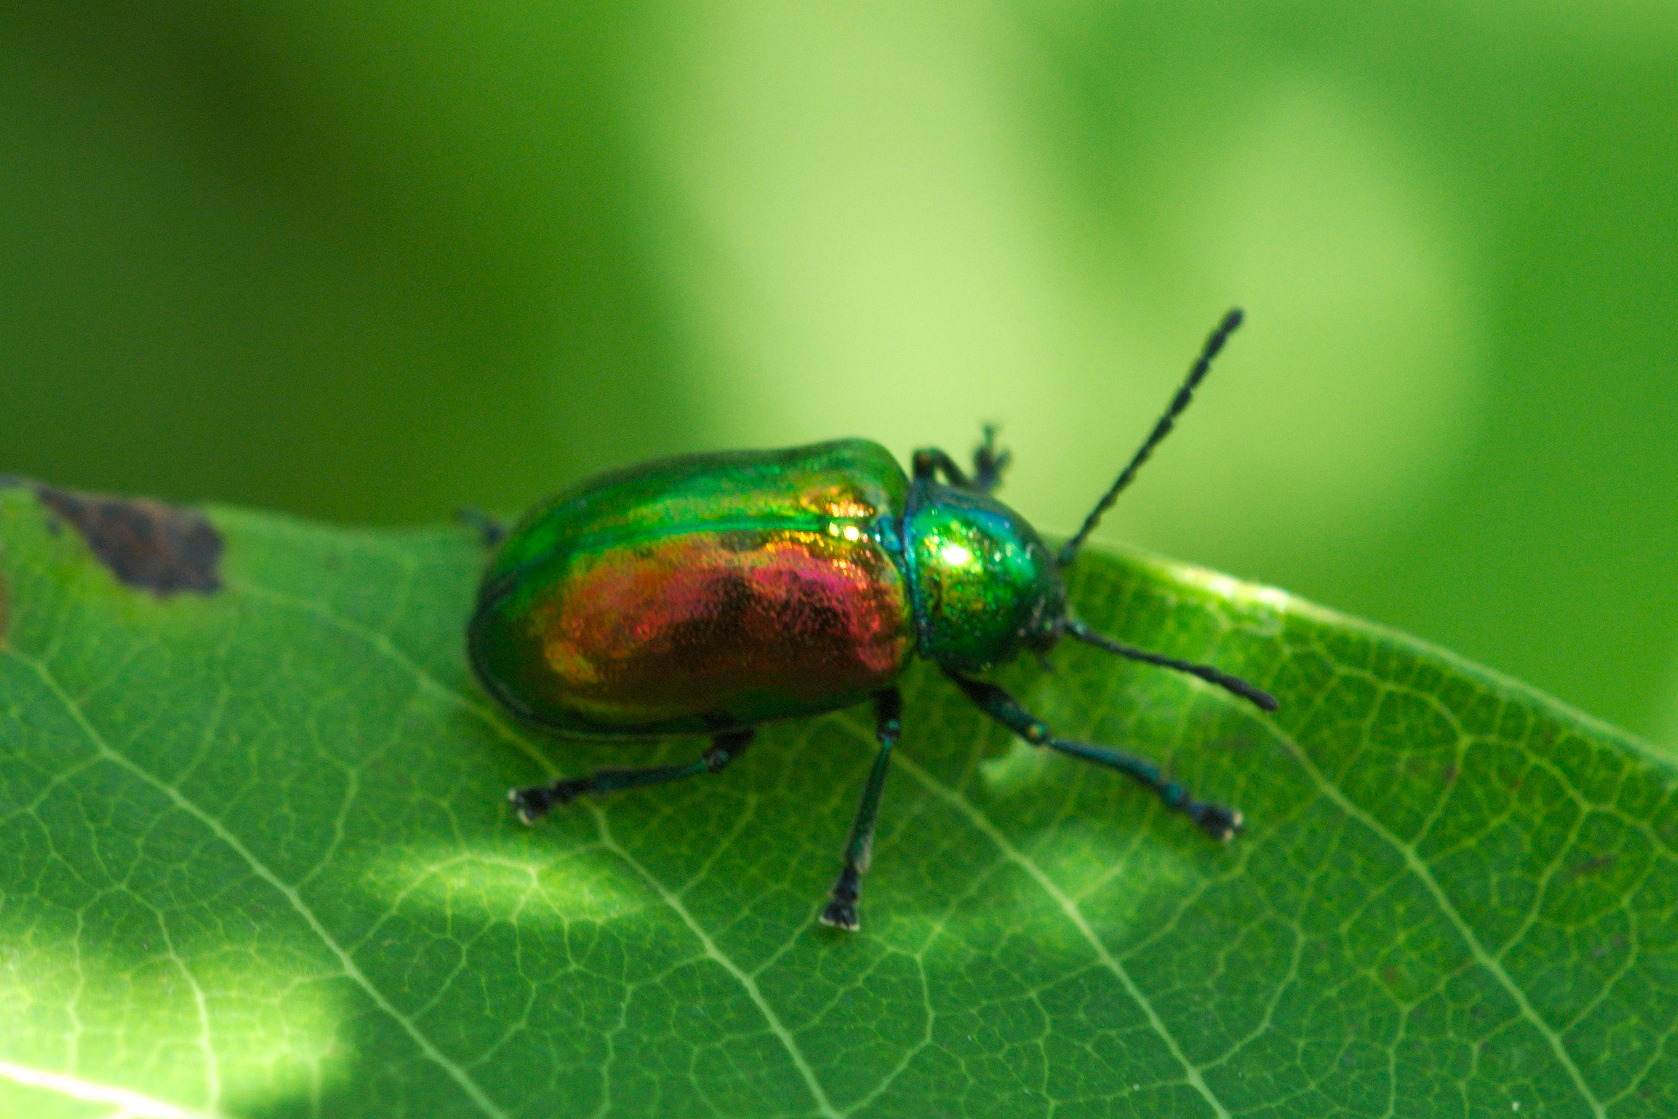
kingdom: Animalia
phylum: Arthropoda
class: Insecta
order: Coleoptera
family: Chrysomelidae
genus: Chrysochus
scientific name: Chrysochus auratus
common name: Dogbane leaf beetle
